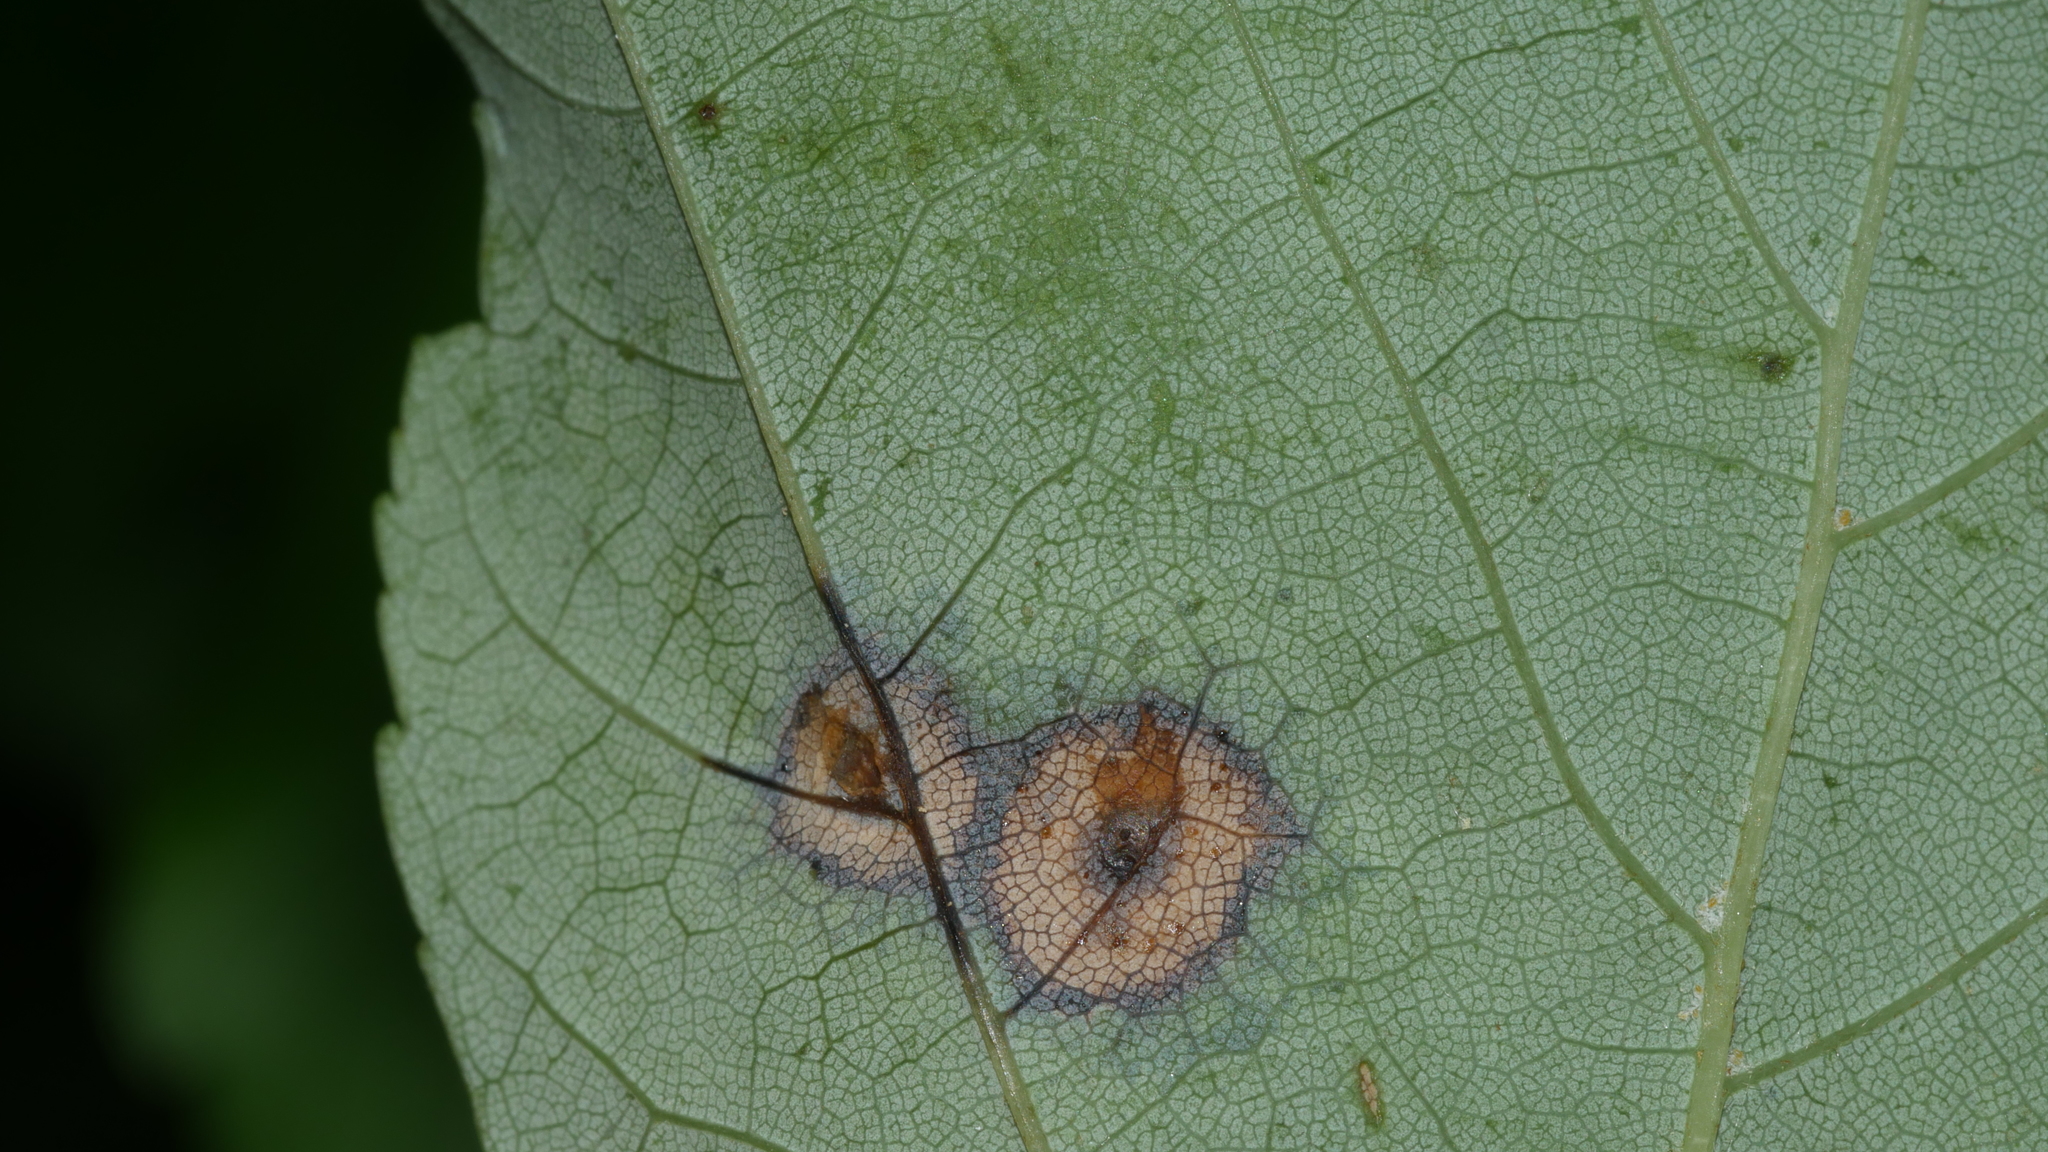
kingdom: Animalia
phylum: Arthropoda
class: Insecta
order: Diptera
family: Cecidomyiidae
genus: Acericecis
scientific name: Acericecis ocellaris
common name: Ocellate gall midge
